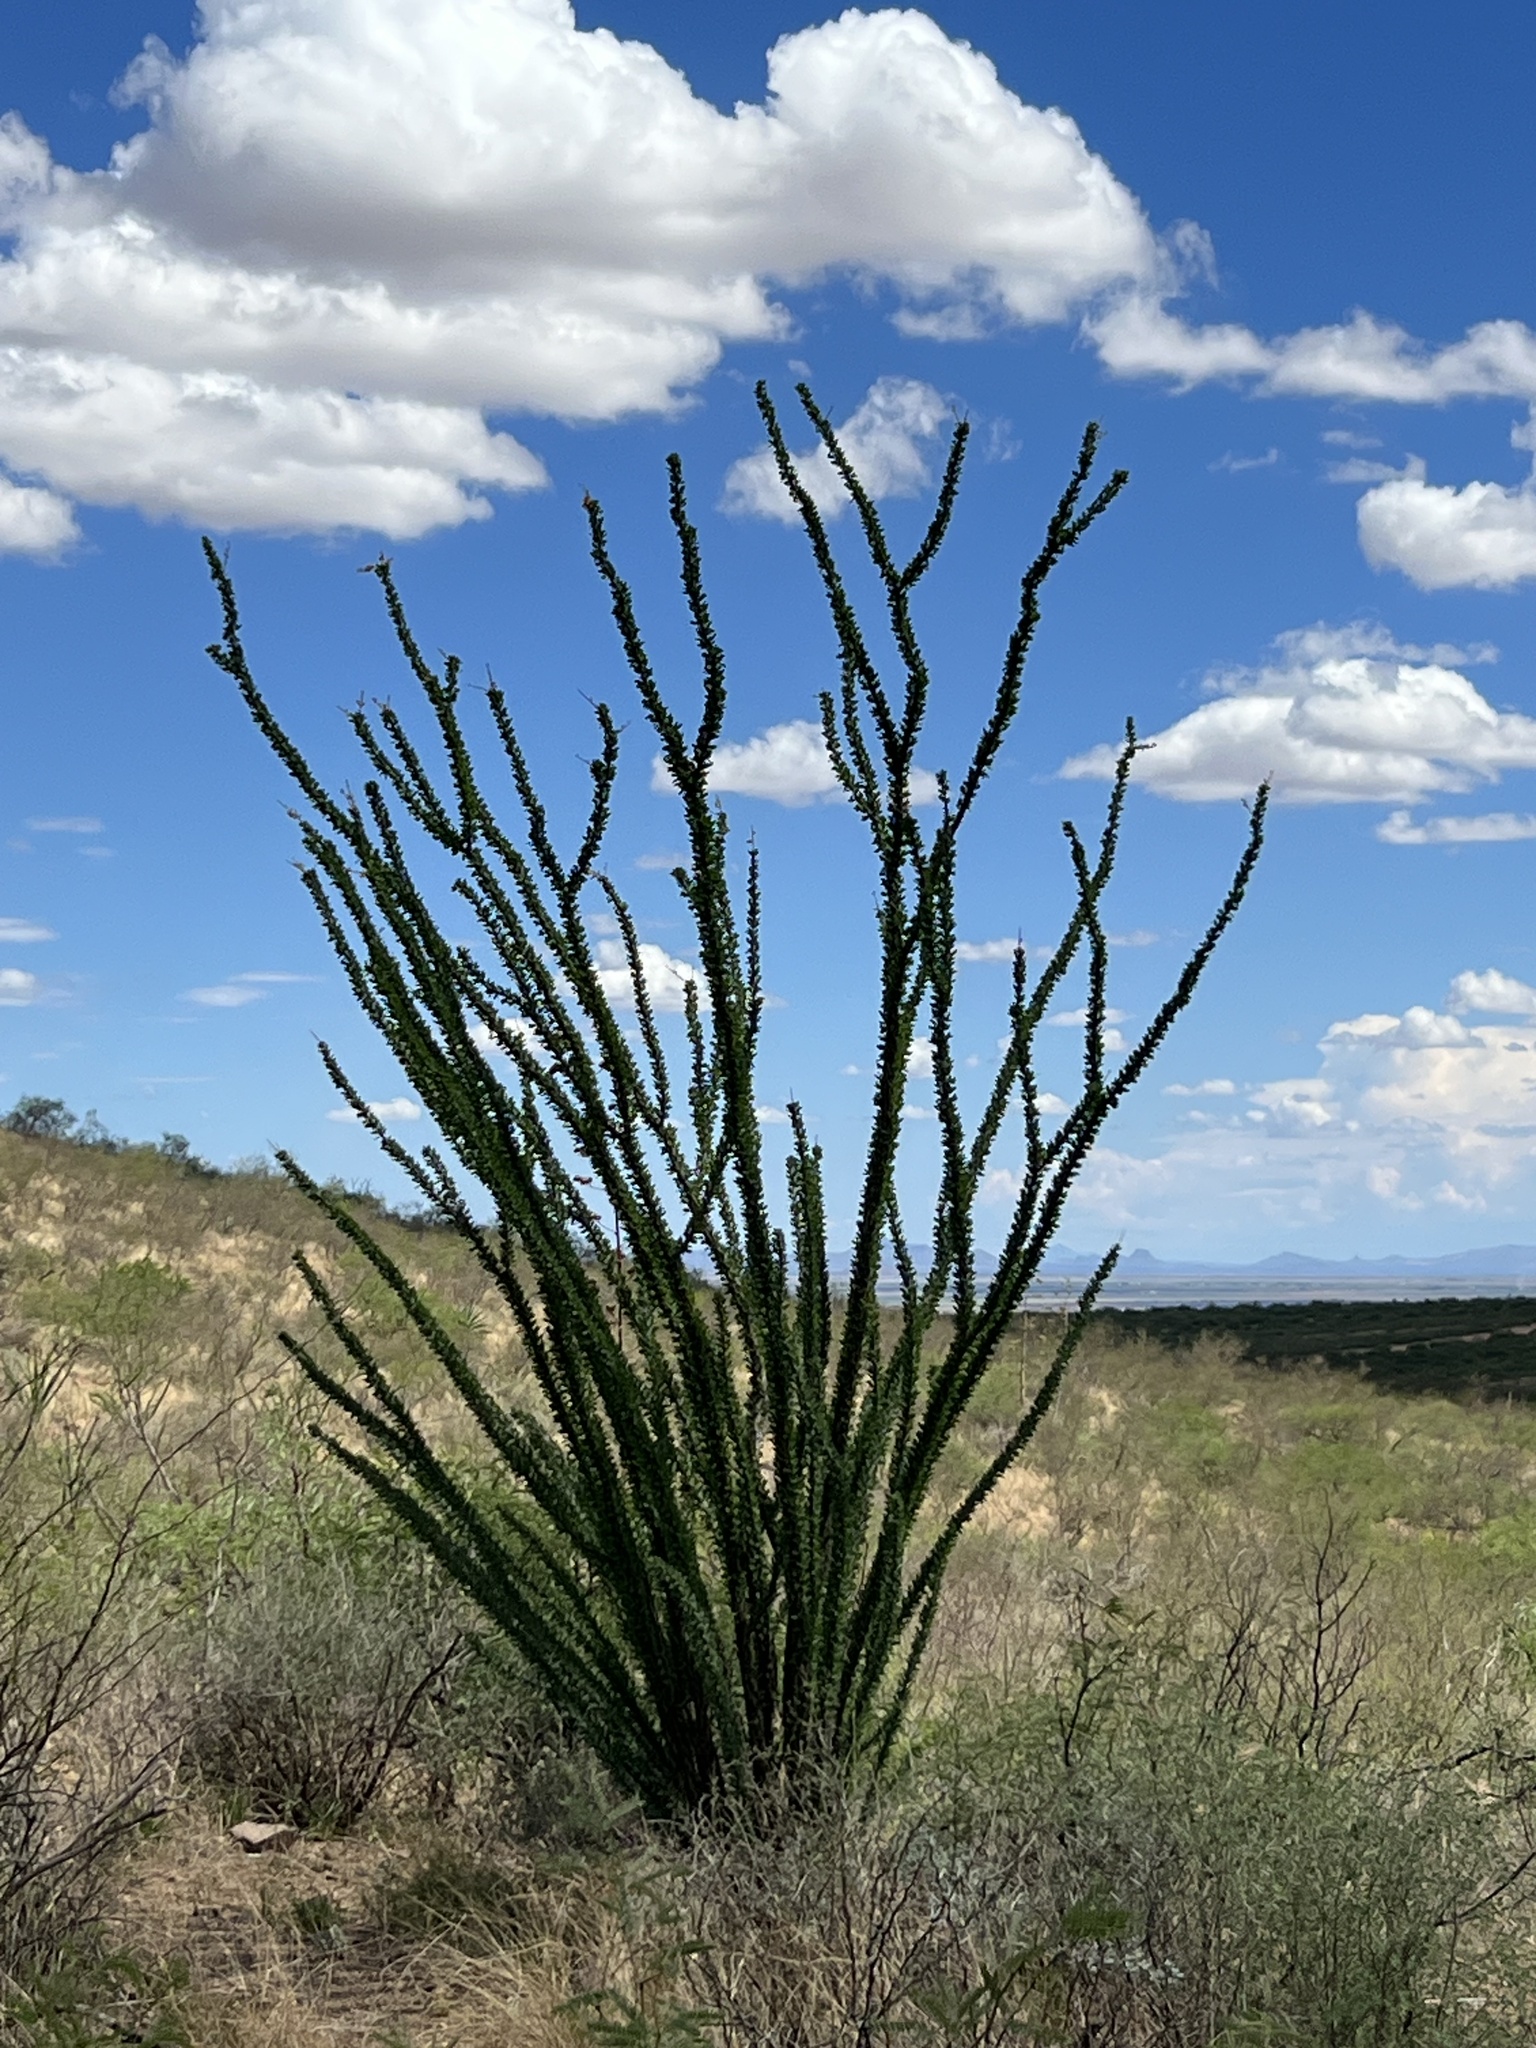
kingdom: Plantae
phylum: Tracheophyta
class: Magnoliopsida
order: Ericales
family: Fouquieriaceae
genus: Fouquieria
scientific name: Fouquieria splendens
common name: Vine-cactus
